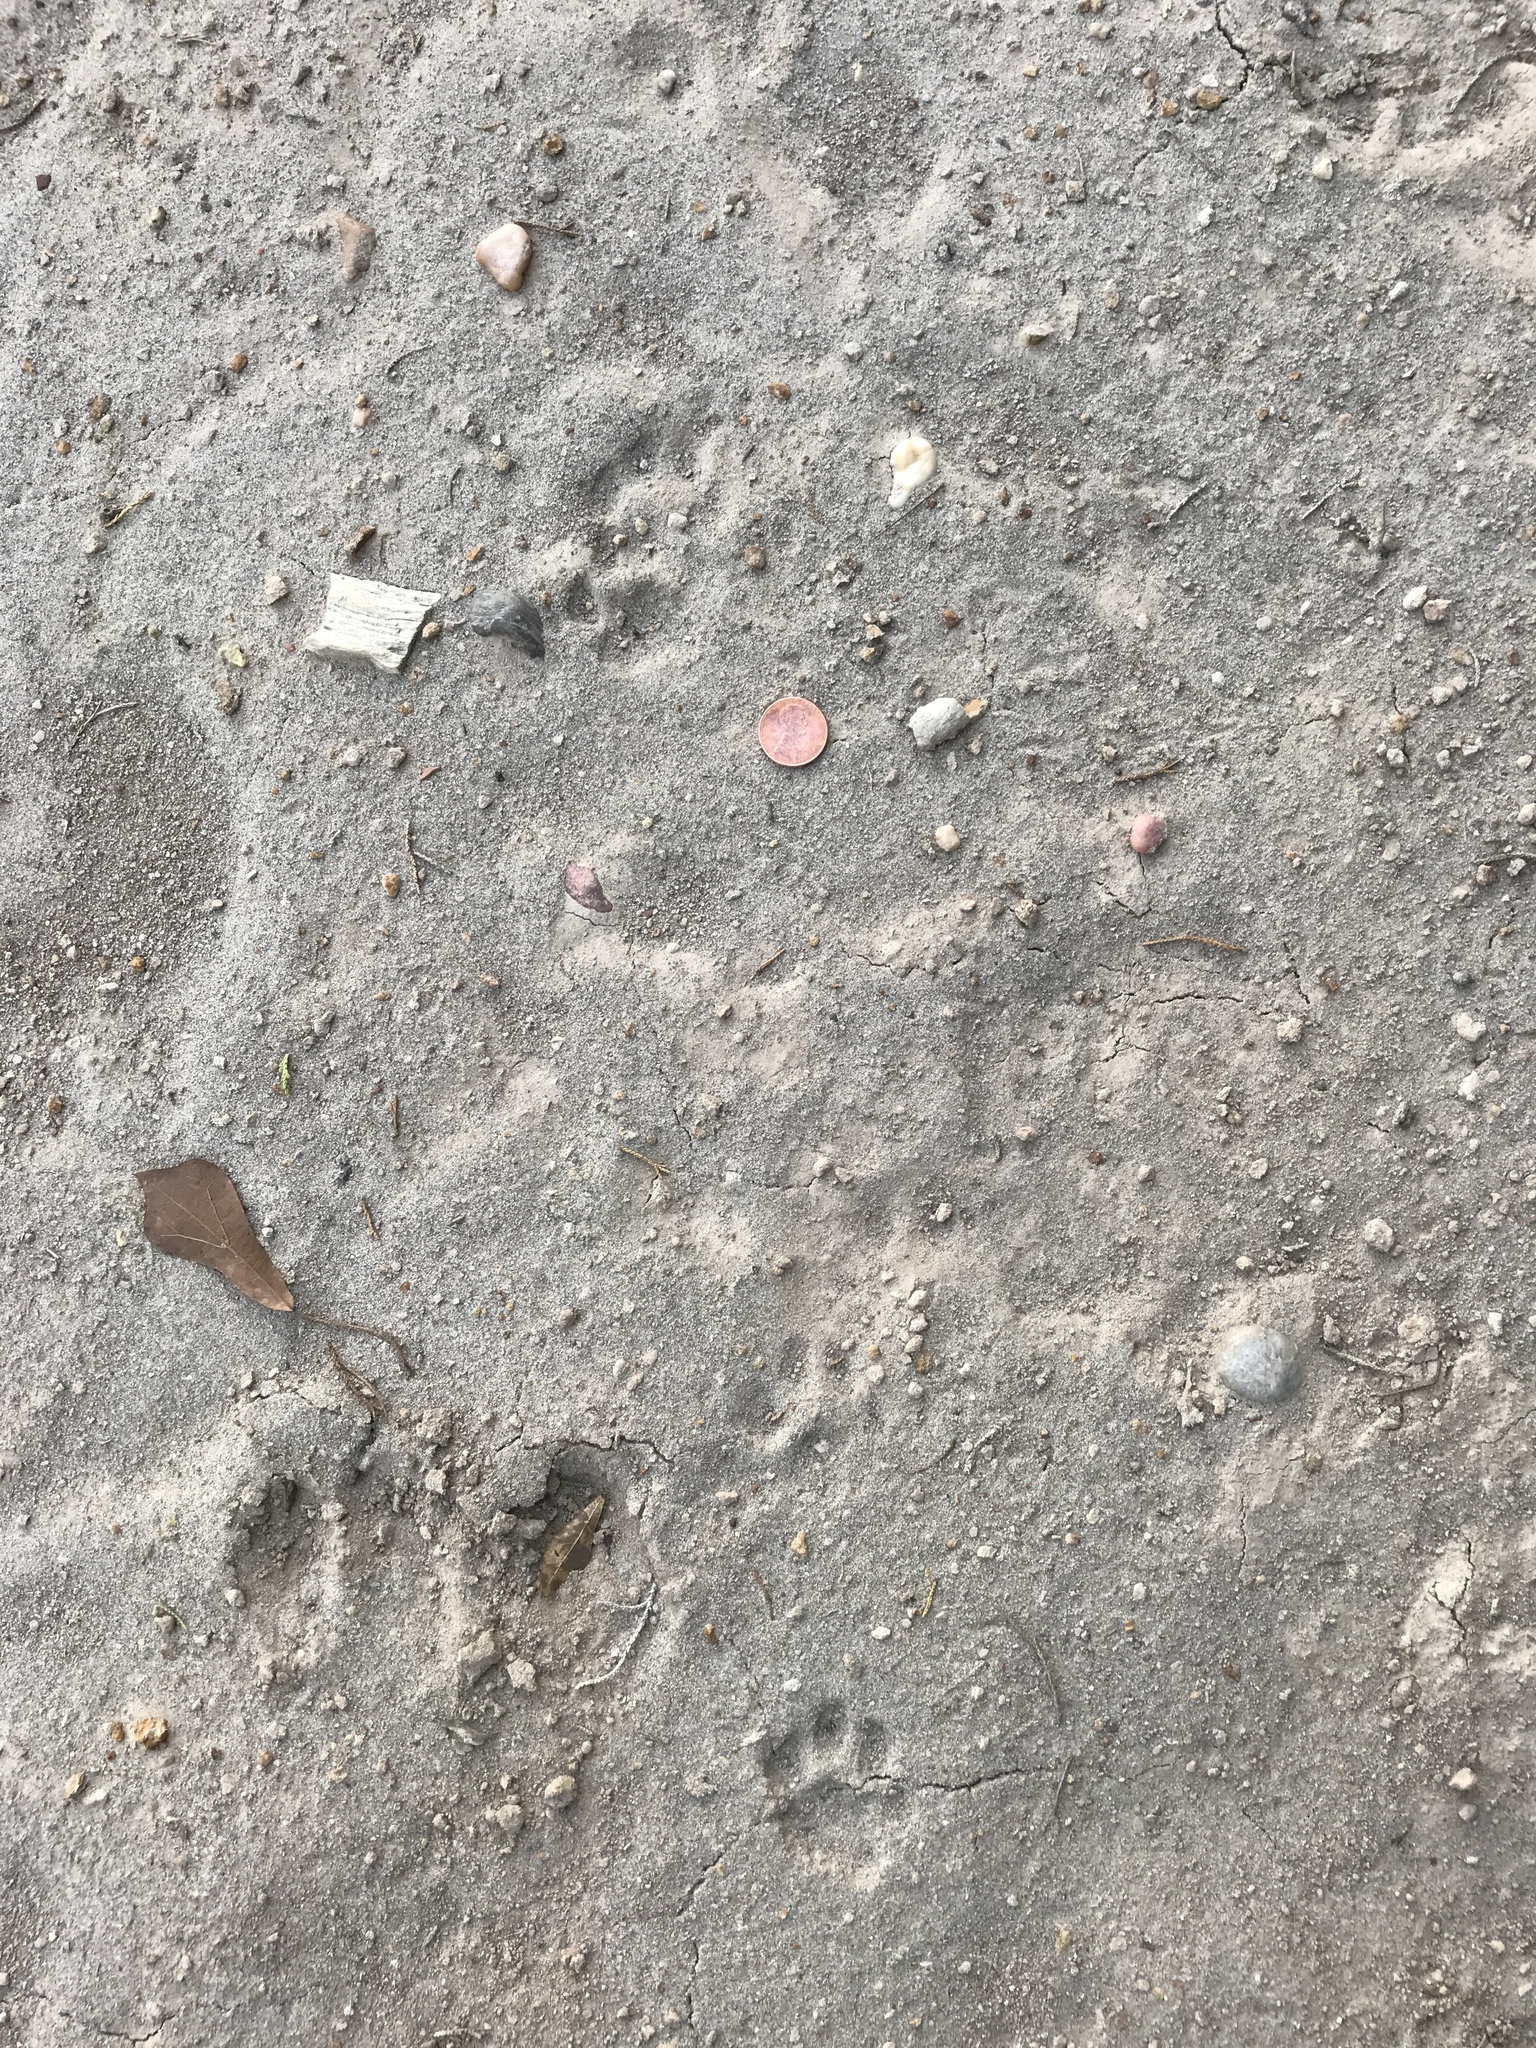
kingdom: Animalia
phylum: Chordata
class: Mammalia
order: Carnivora
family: Felidae
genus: Felis
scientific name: Felis catus
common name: Domestic cat
